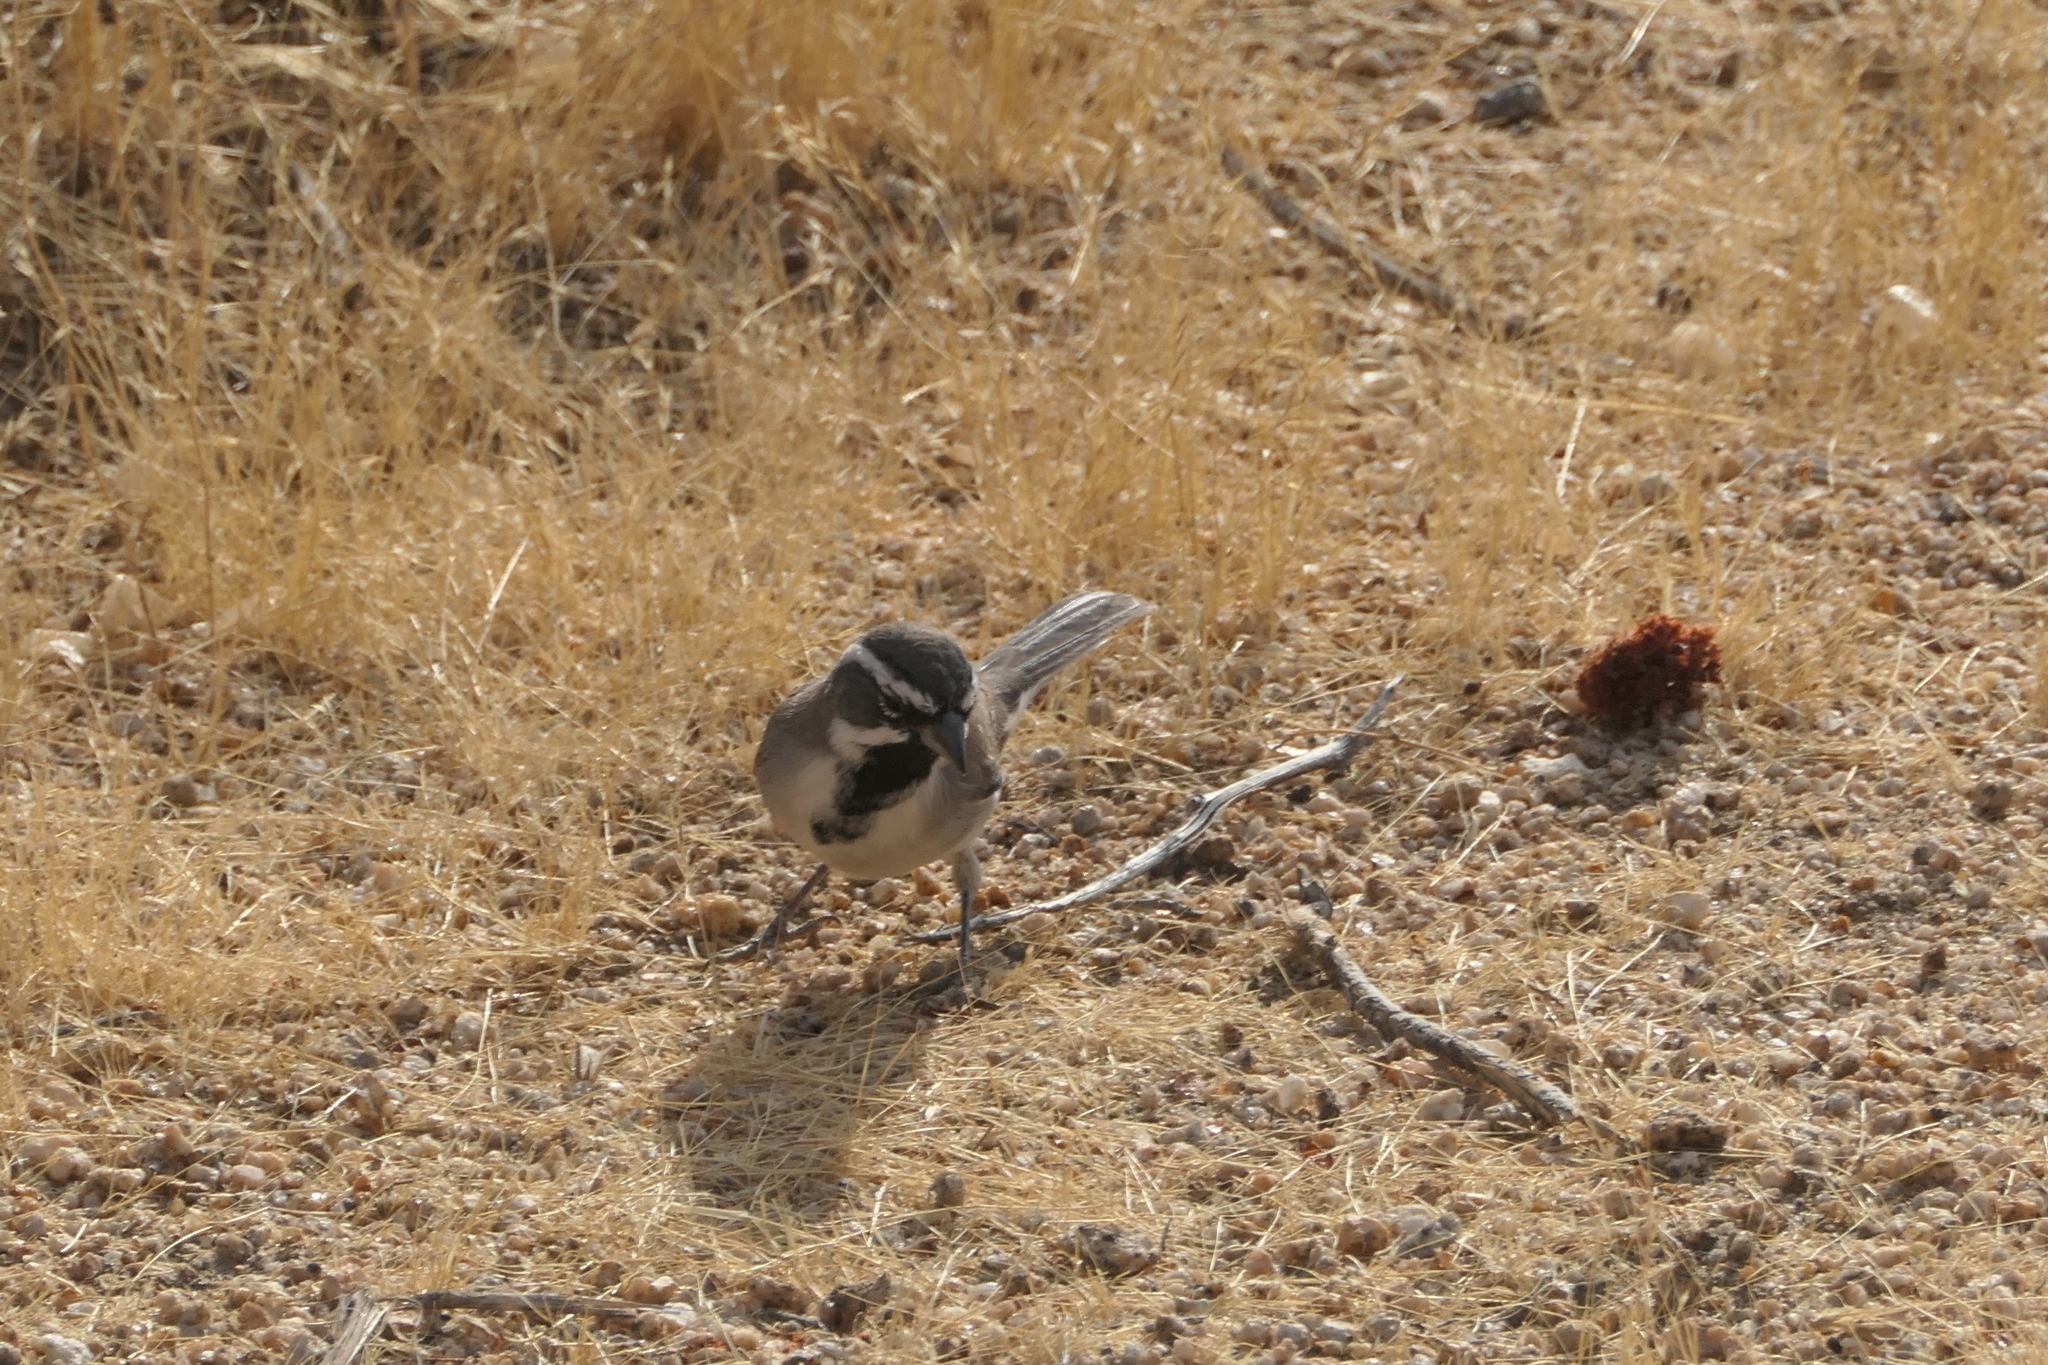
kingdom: Animalia
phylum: Chordata
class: Aves
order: Passeriformes
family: Passerellidae
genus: Amphispiza
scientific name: Amphispiza bilineata
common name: Black-throated sparrow
